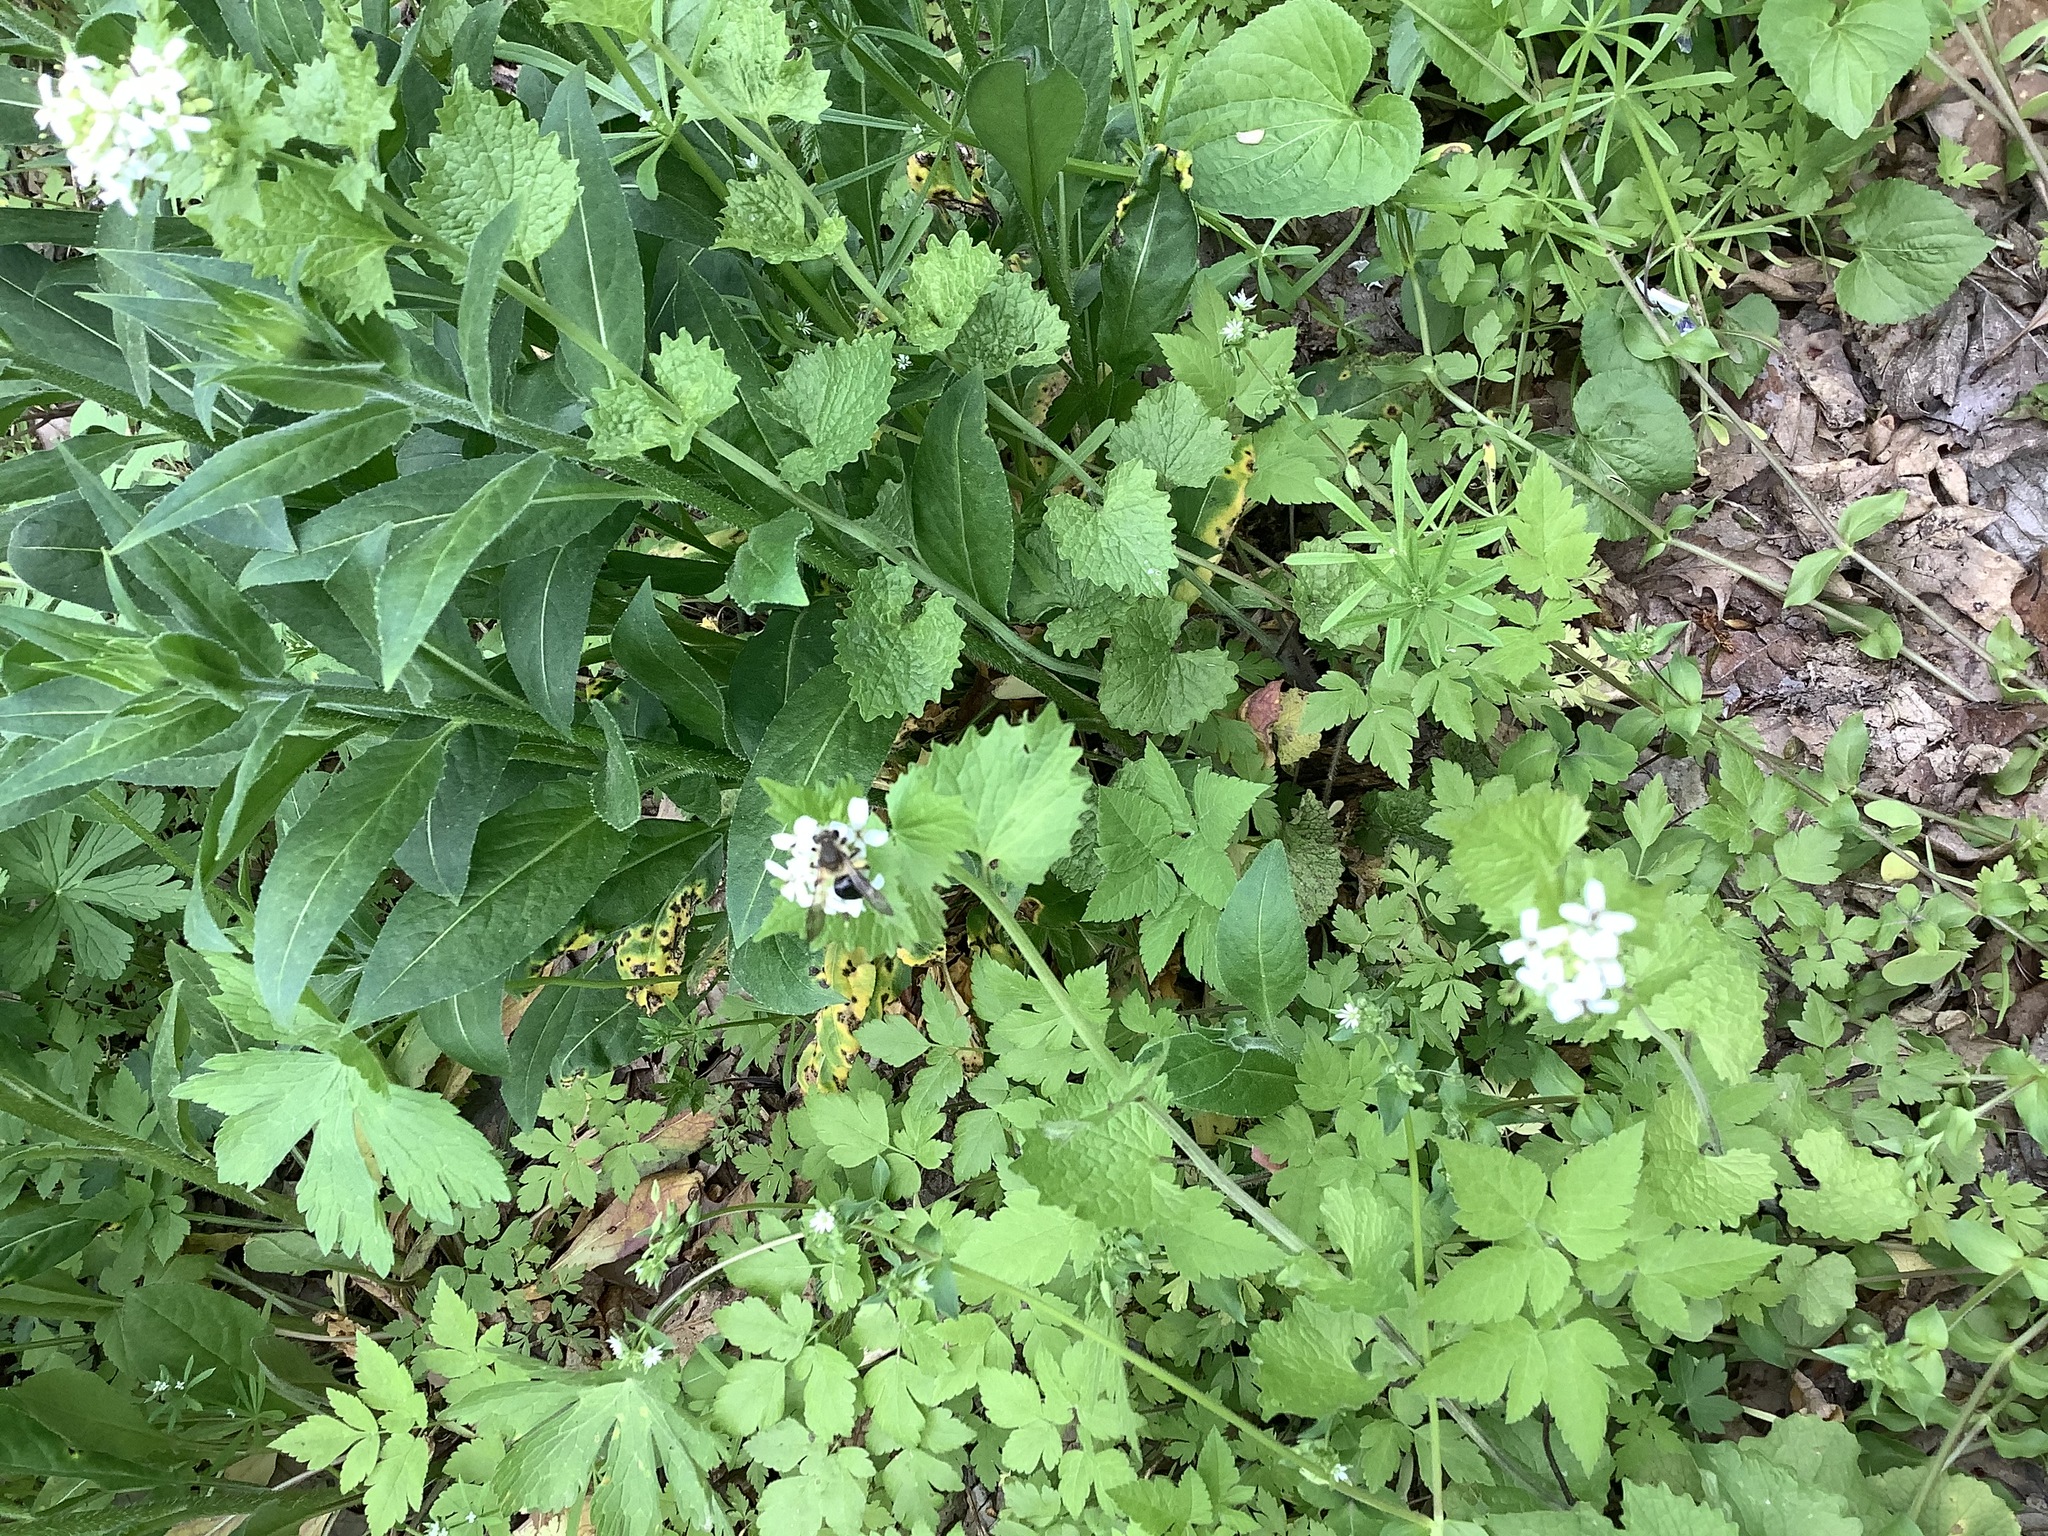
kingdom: Plantae
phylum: Tracheophyta
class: Magnoliopsida
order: Brassicales
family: Brassicaceae
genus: Alliaria
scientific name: Alliaria petiolata
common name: Garlic mustard
